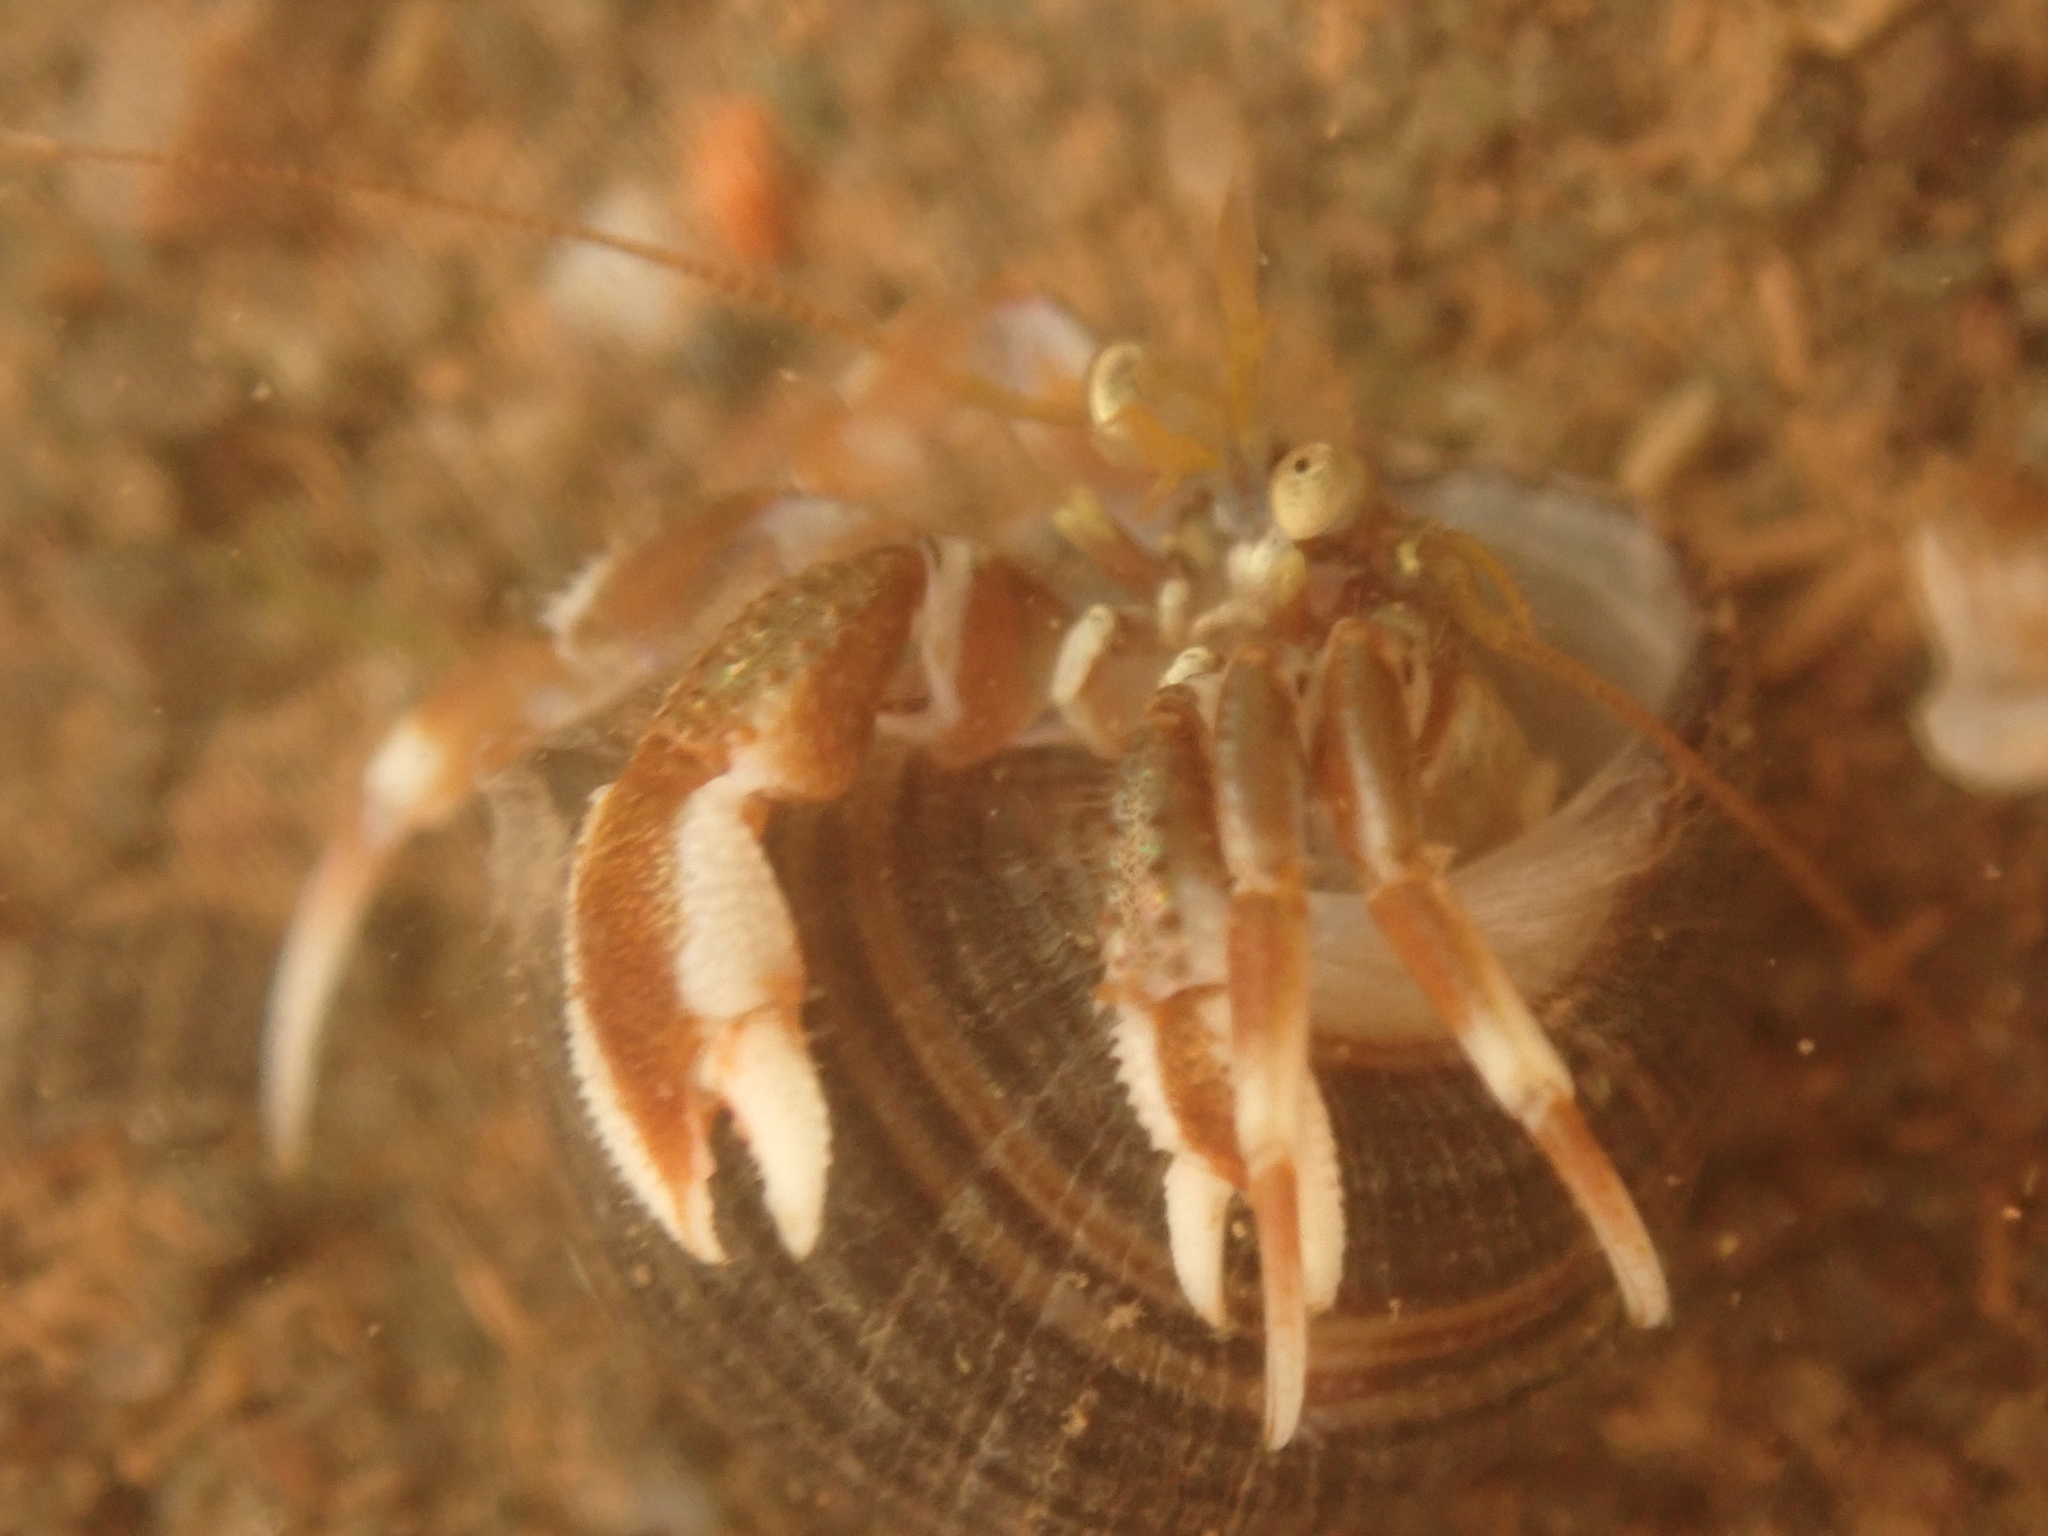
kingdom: Animalia
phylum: Arthropoda
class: Malacostraca
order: Decapoda
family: Paguridae
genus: Pagurus
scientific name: Pagurus acadianus
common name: Acadian hermit crab
